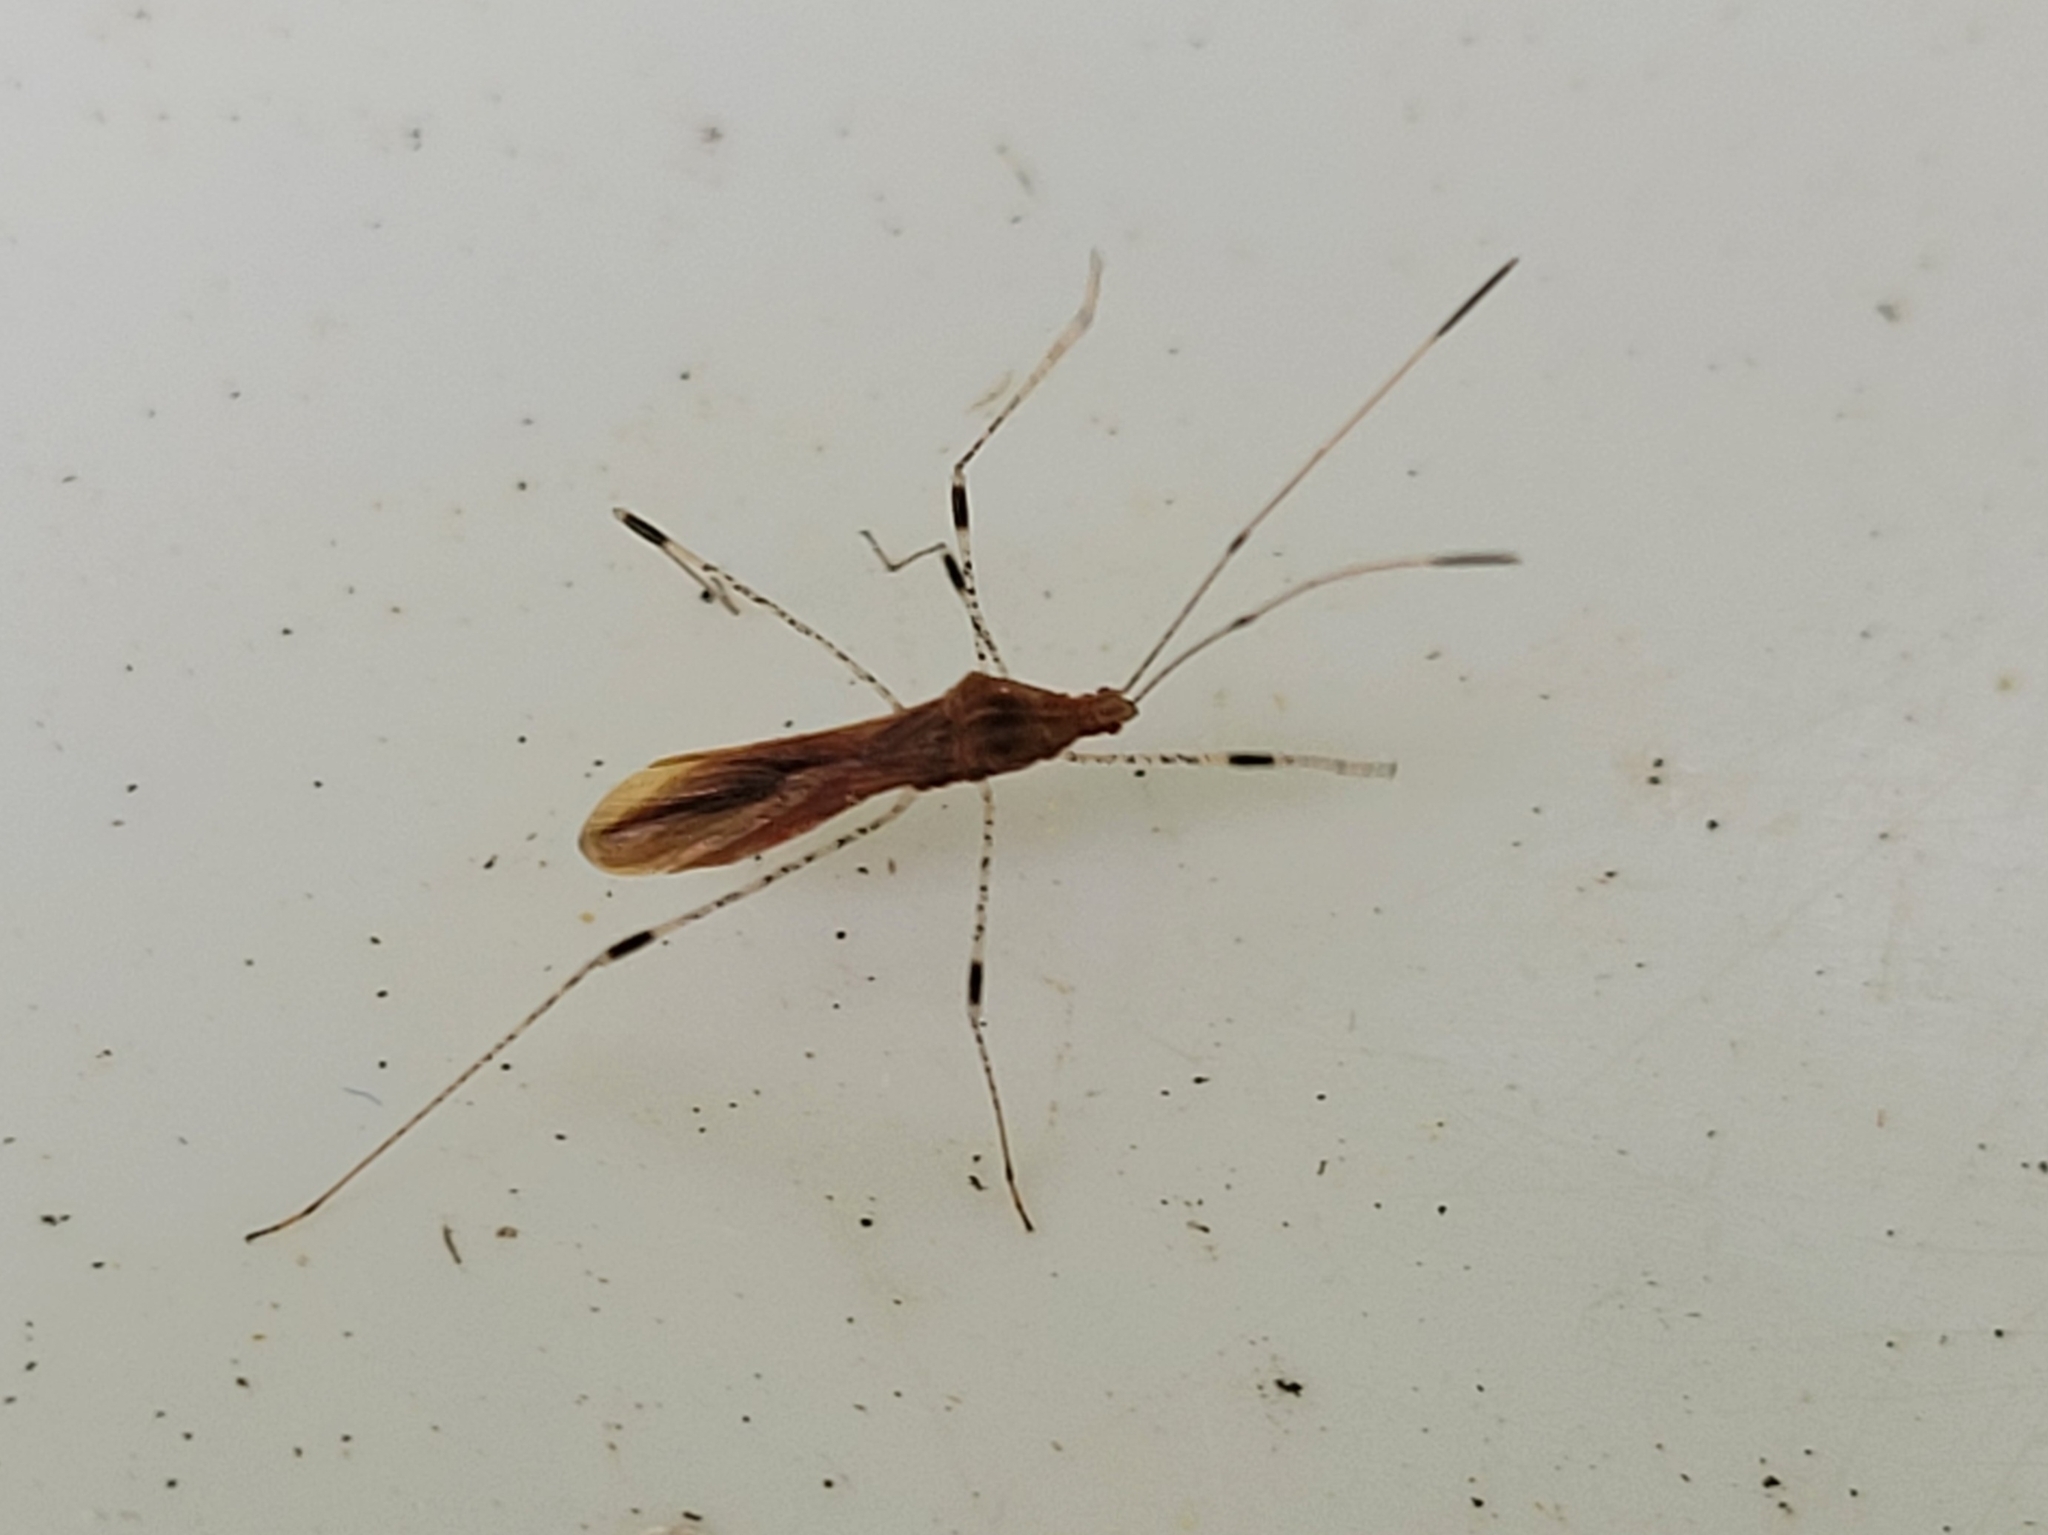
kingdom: Animalia
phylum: Arthropoda
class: Insecta
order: Hemiptera
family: Berytidae
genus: Metatropis
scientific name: Metatropis rufescens
